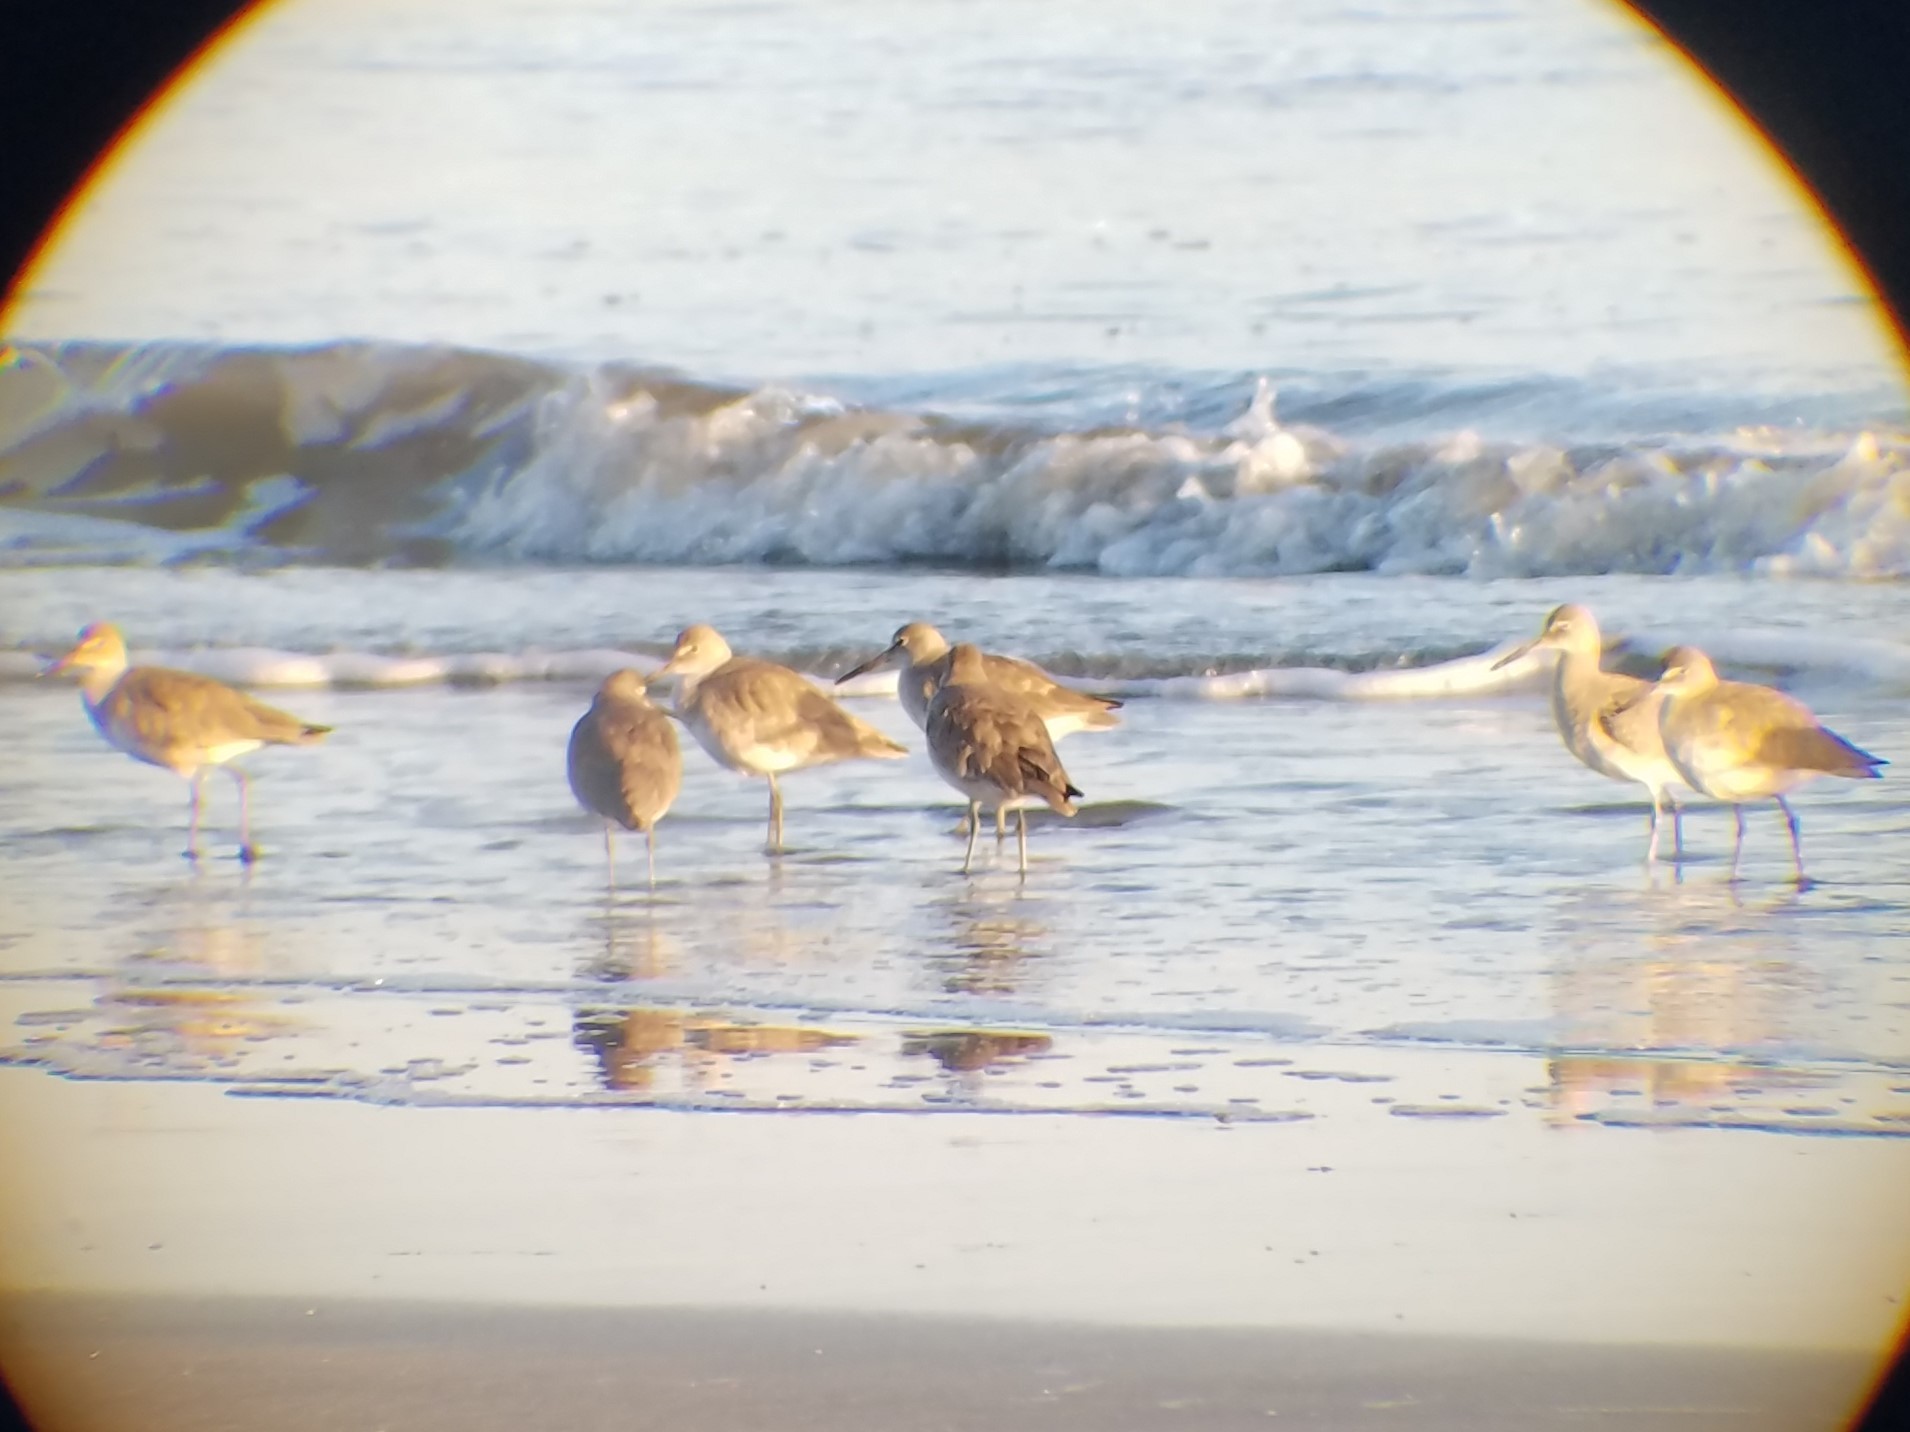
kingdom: Animalia
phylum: Chordata
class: Aves
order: Charadriiformes
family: Scolopacidae
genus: Tringa
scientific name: Tringa semipalmata
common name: Willet
